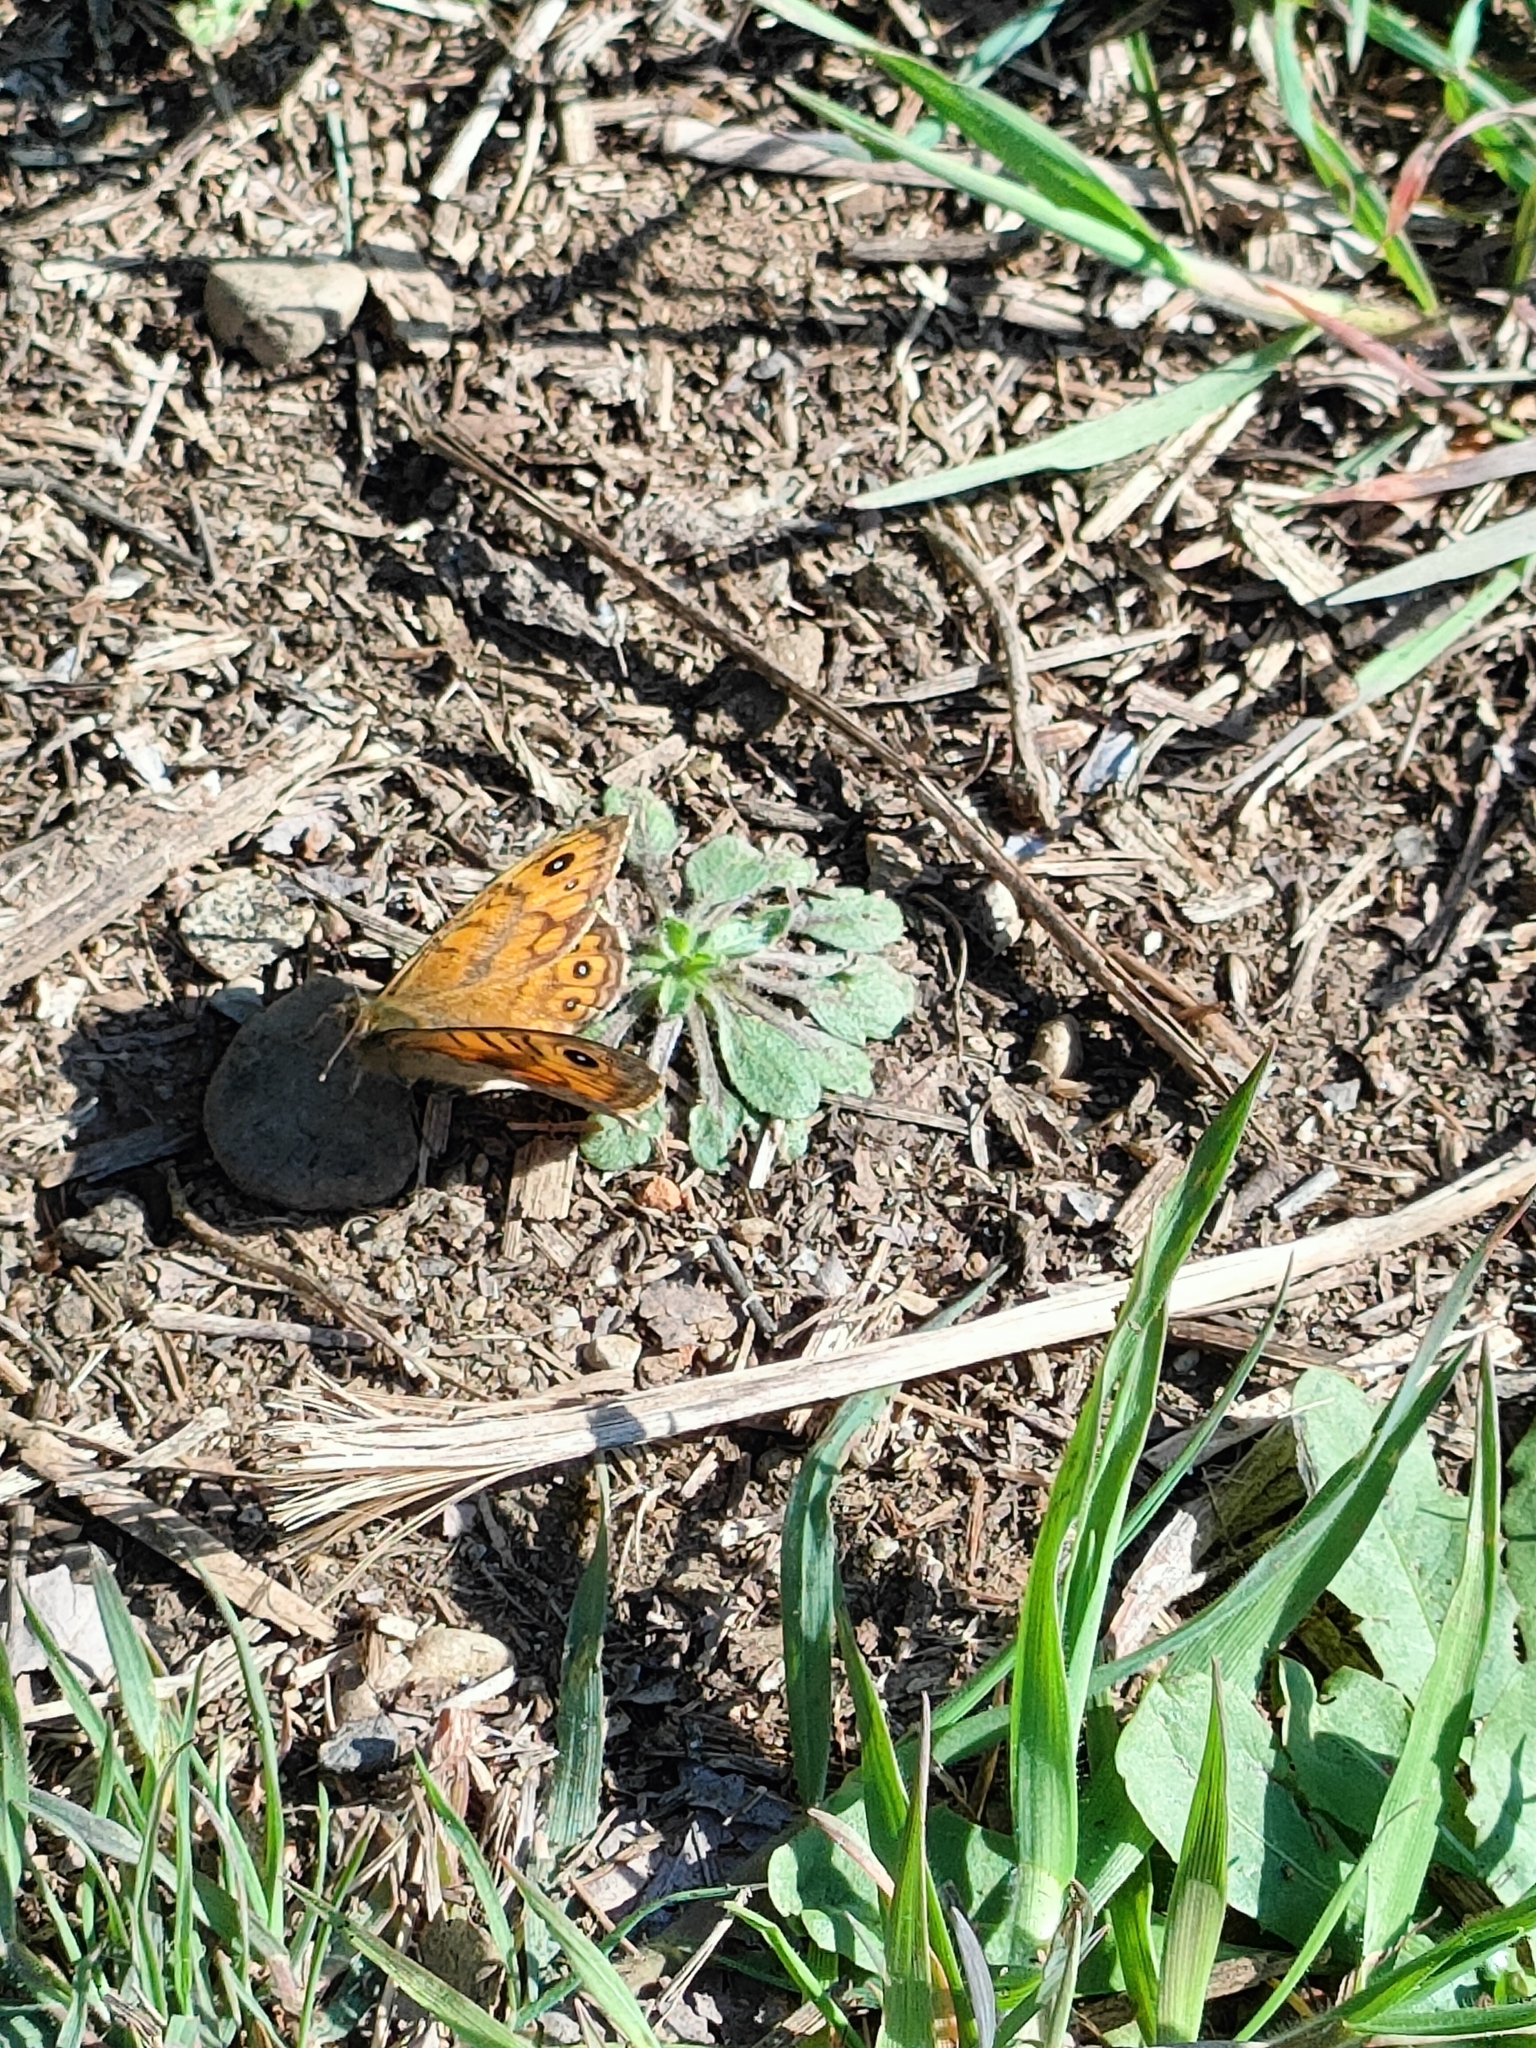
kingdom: Animalia
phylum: Arthropoda
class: Insecta
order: Lepidoptera
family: Nymphalidae
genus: Pararge
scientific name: Pararge Lasiommata megera
